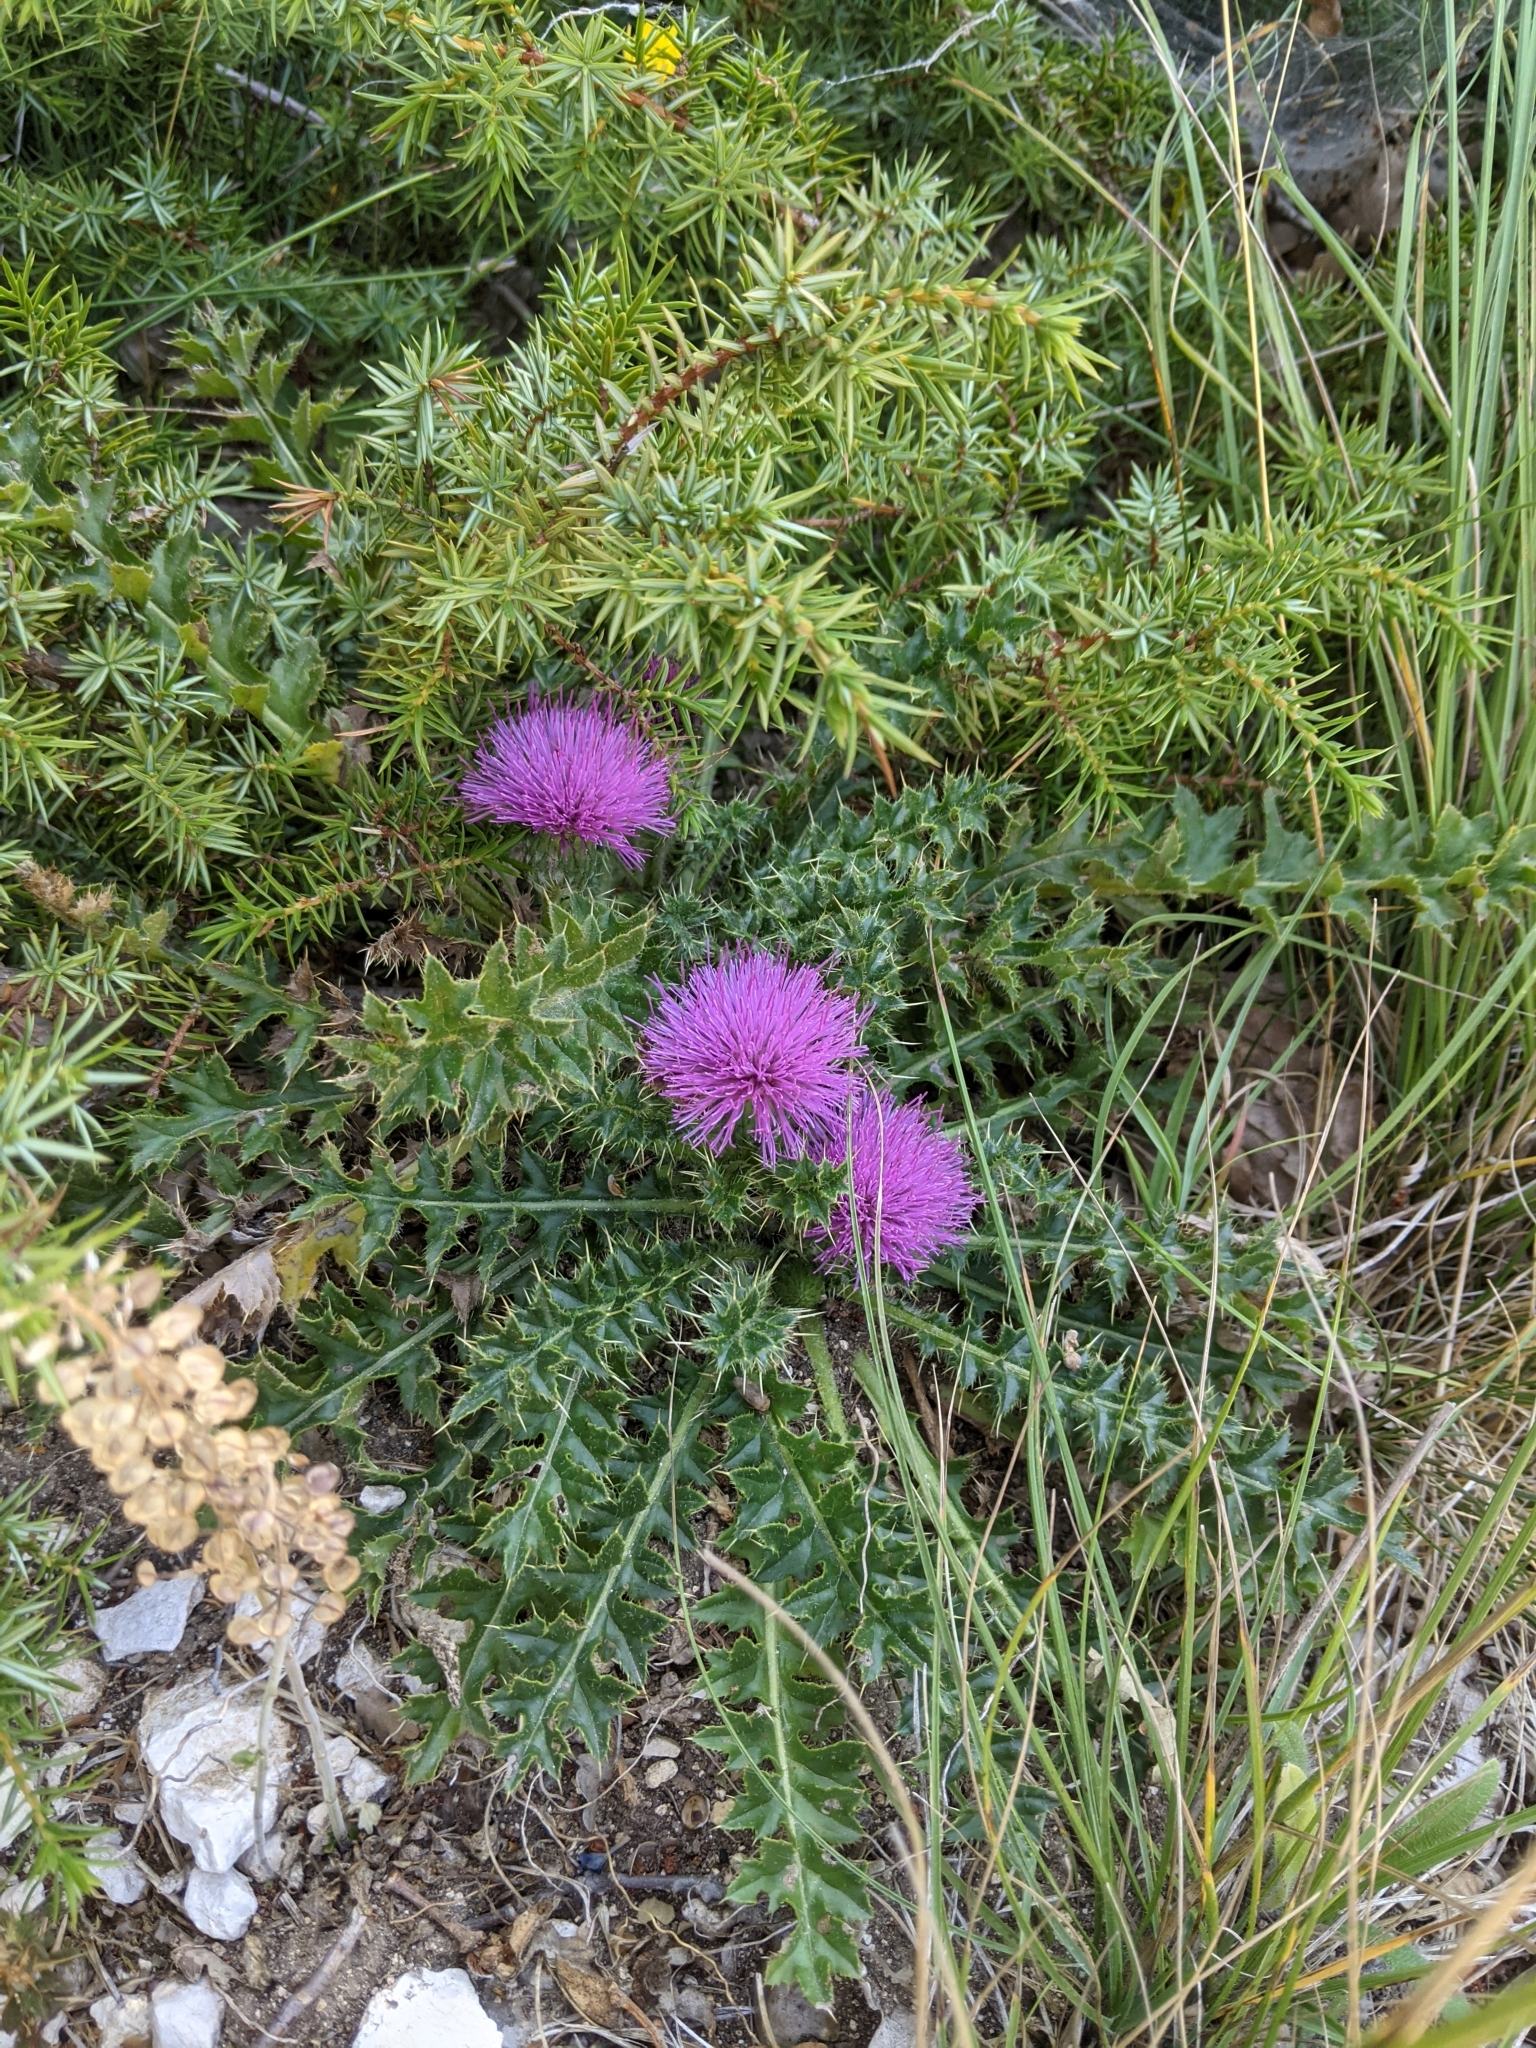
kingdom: Plantae
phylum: Tracheophyta
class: Magnoliopsida
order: Asterales
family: Asteraceae
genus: Cirsium
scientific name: Cirsium acaulon
